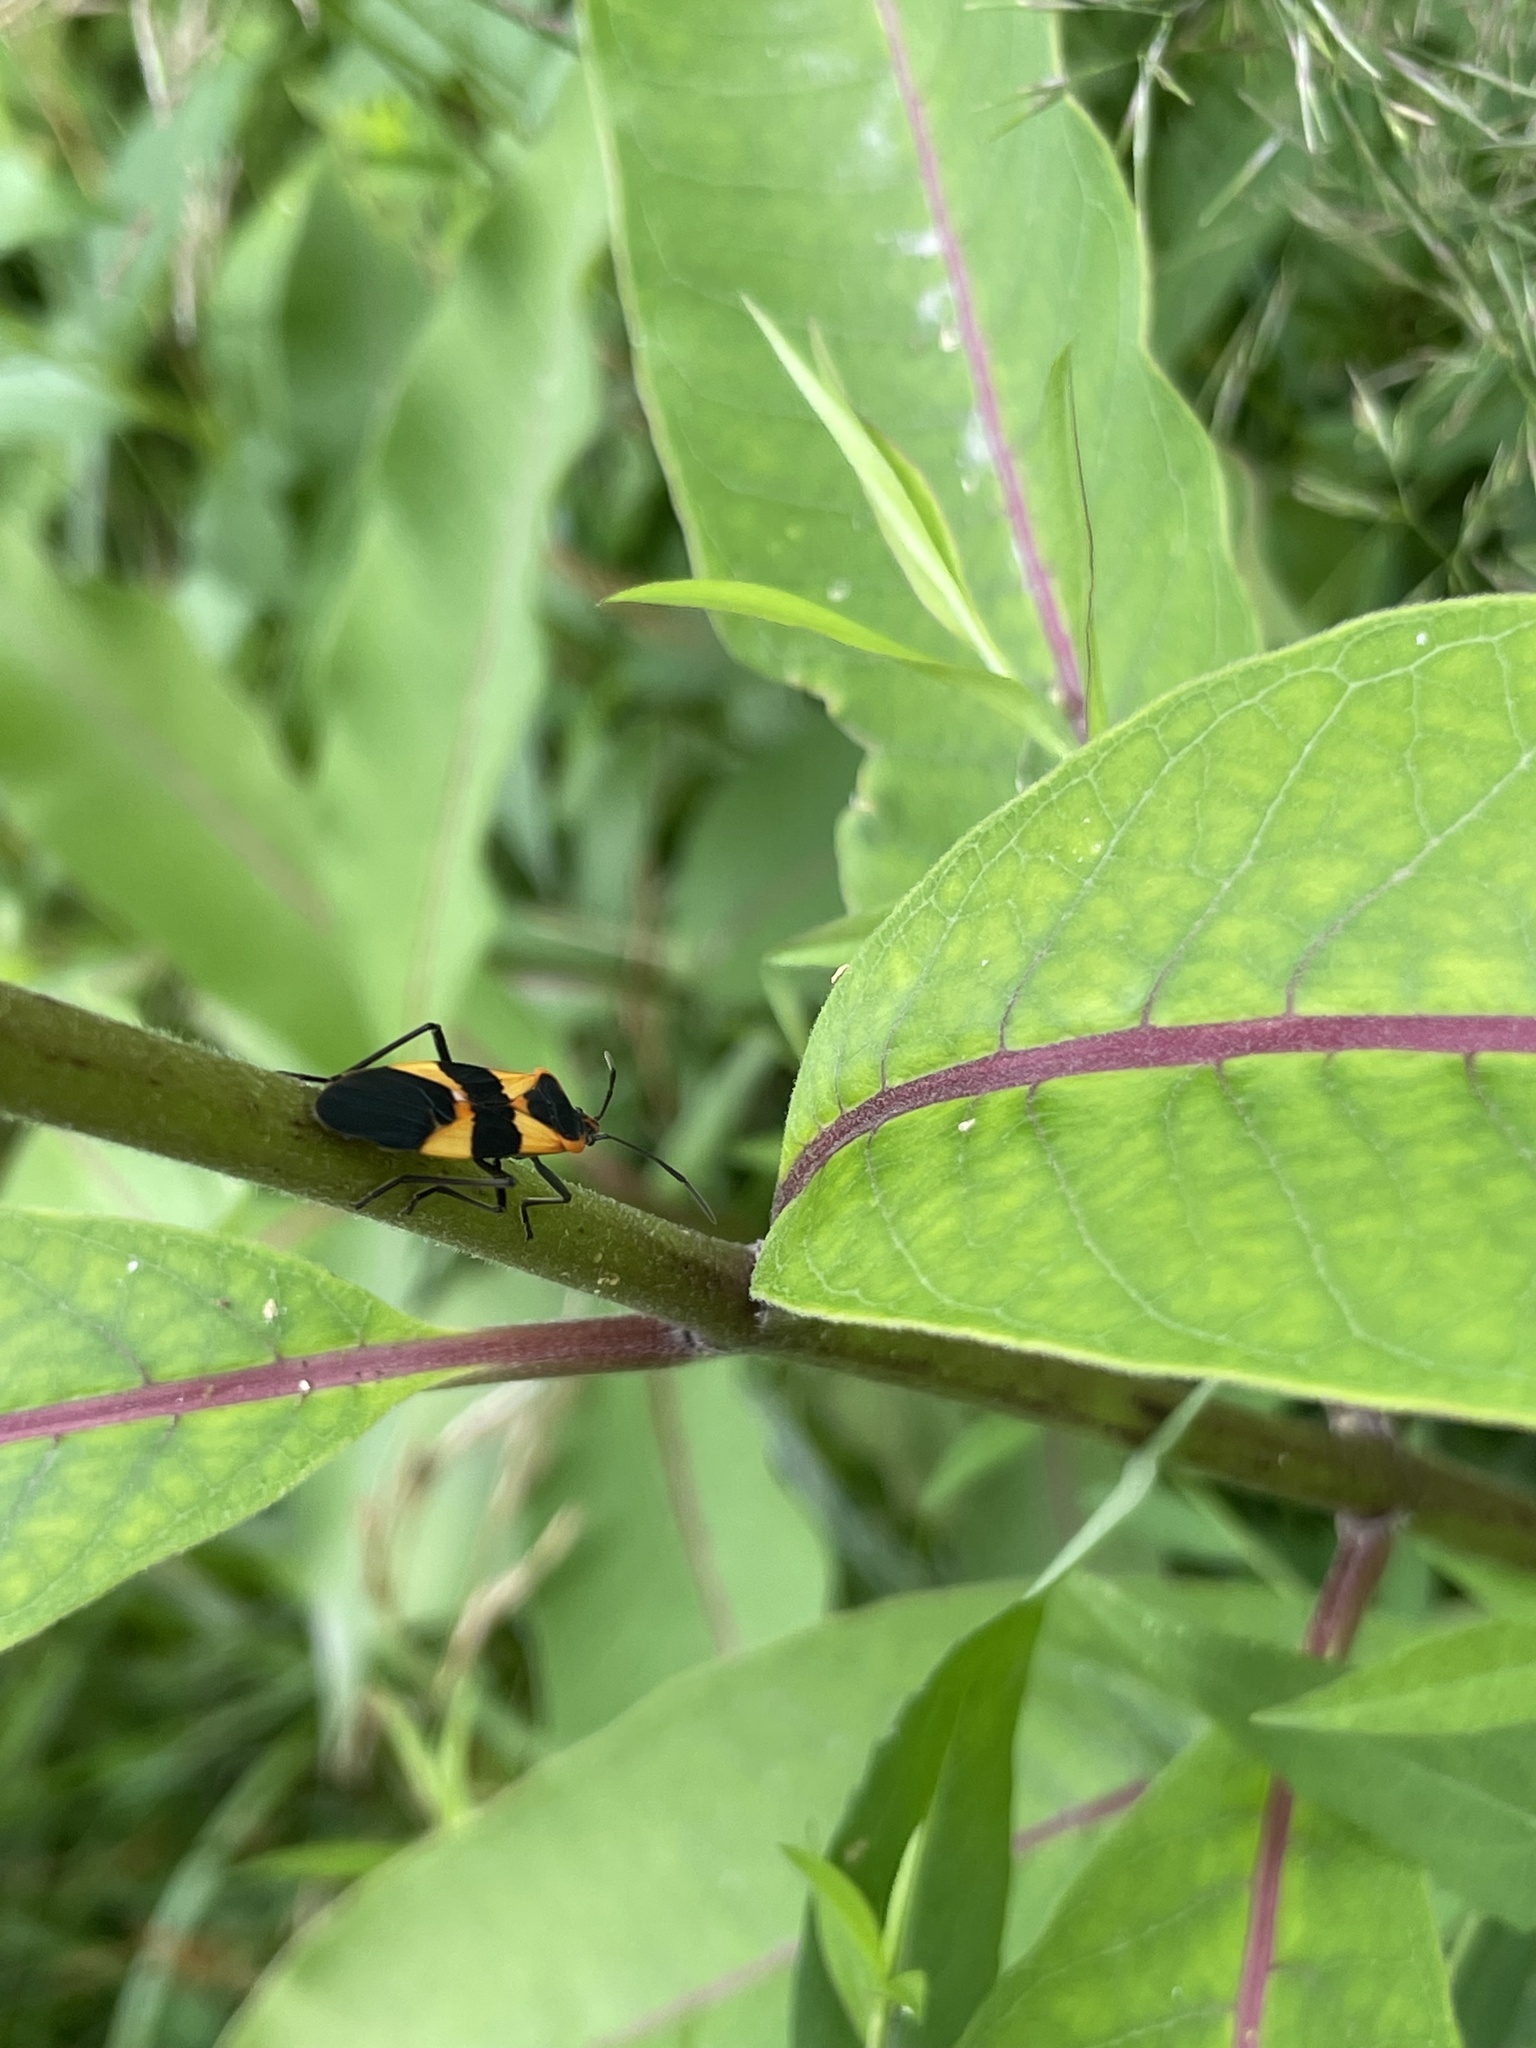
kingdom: Animalia
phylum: Arthropoda
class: Insecta
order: Hemiptera
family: Lygaeidae
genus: Oncopeltus
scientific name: Oncopeltus fasciatus
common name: Large milkweed bug
